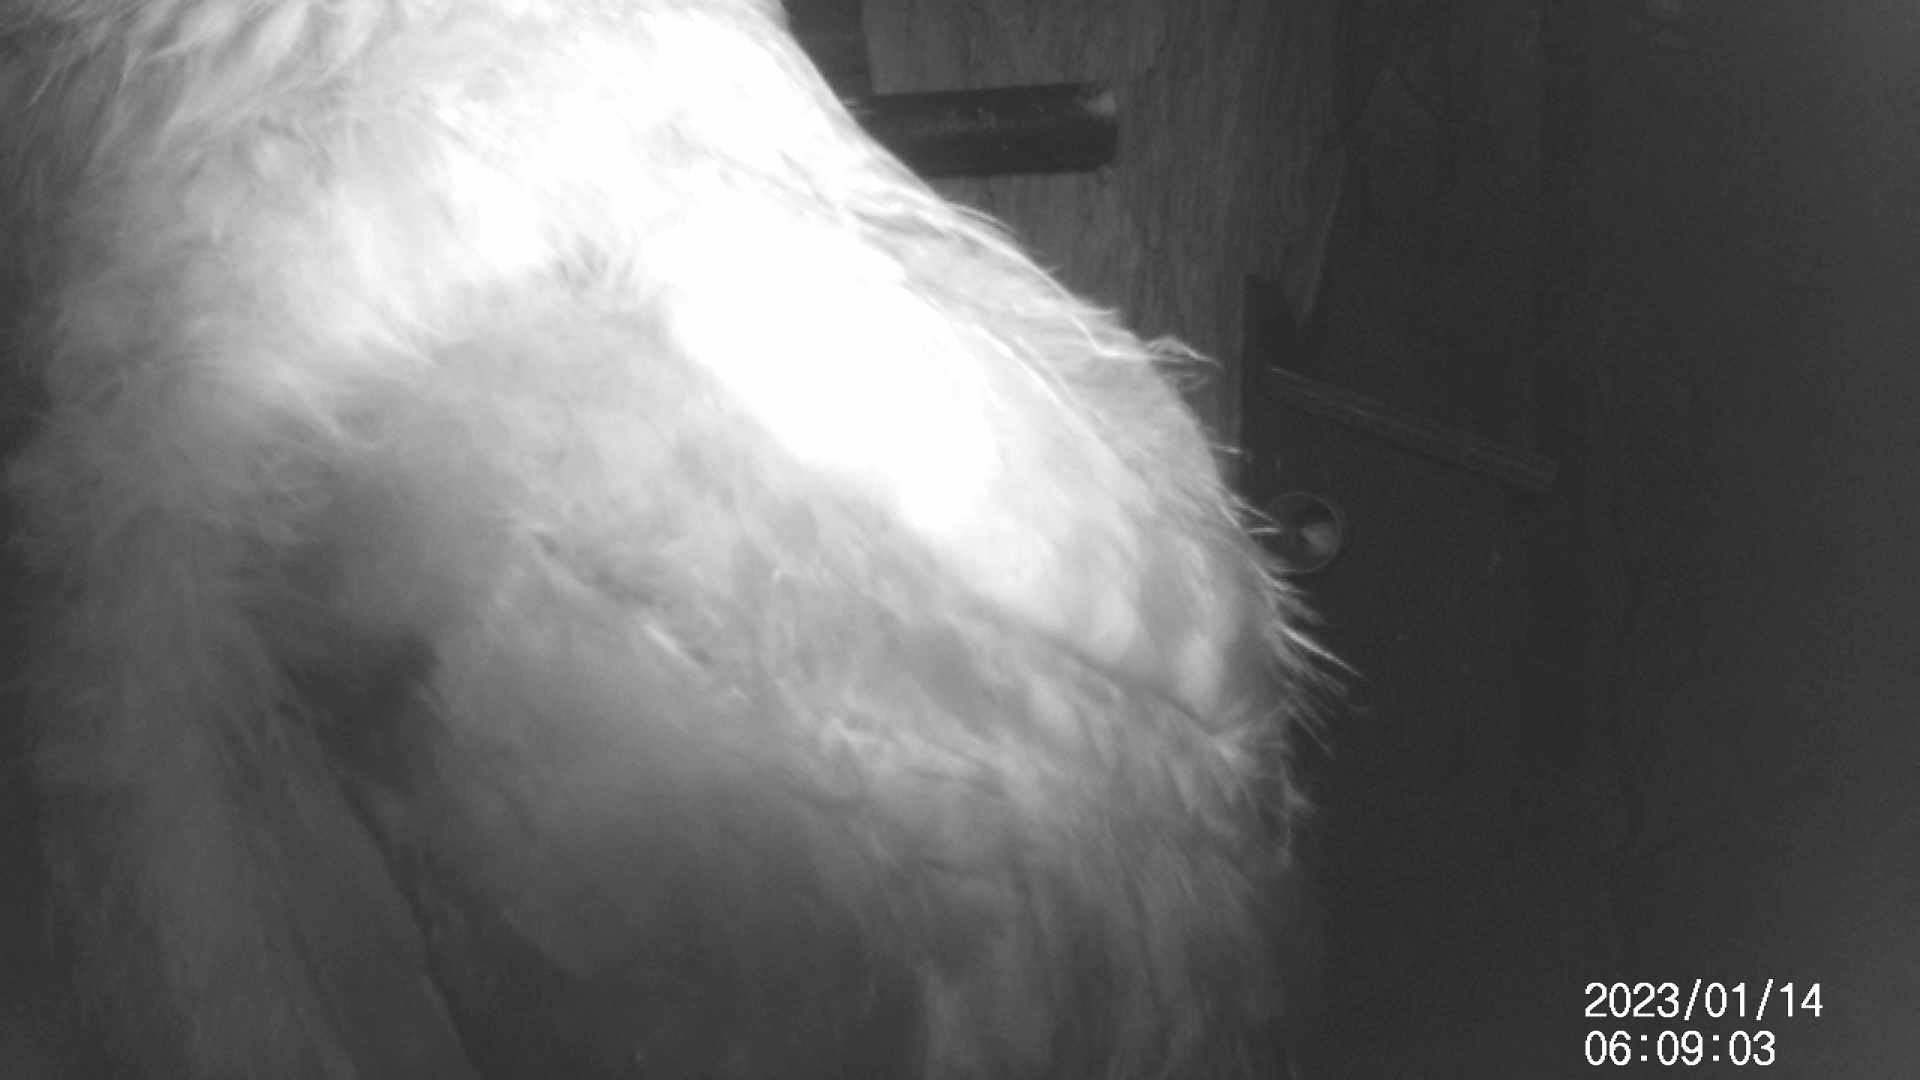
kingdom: Animalia
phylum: Chordata
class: Aves
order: Strigiformes
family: Strigidae
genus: Ninox
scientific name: Ninox boobook
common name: Southern boobook
